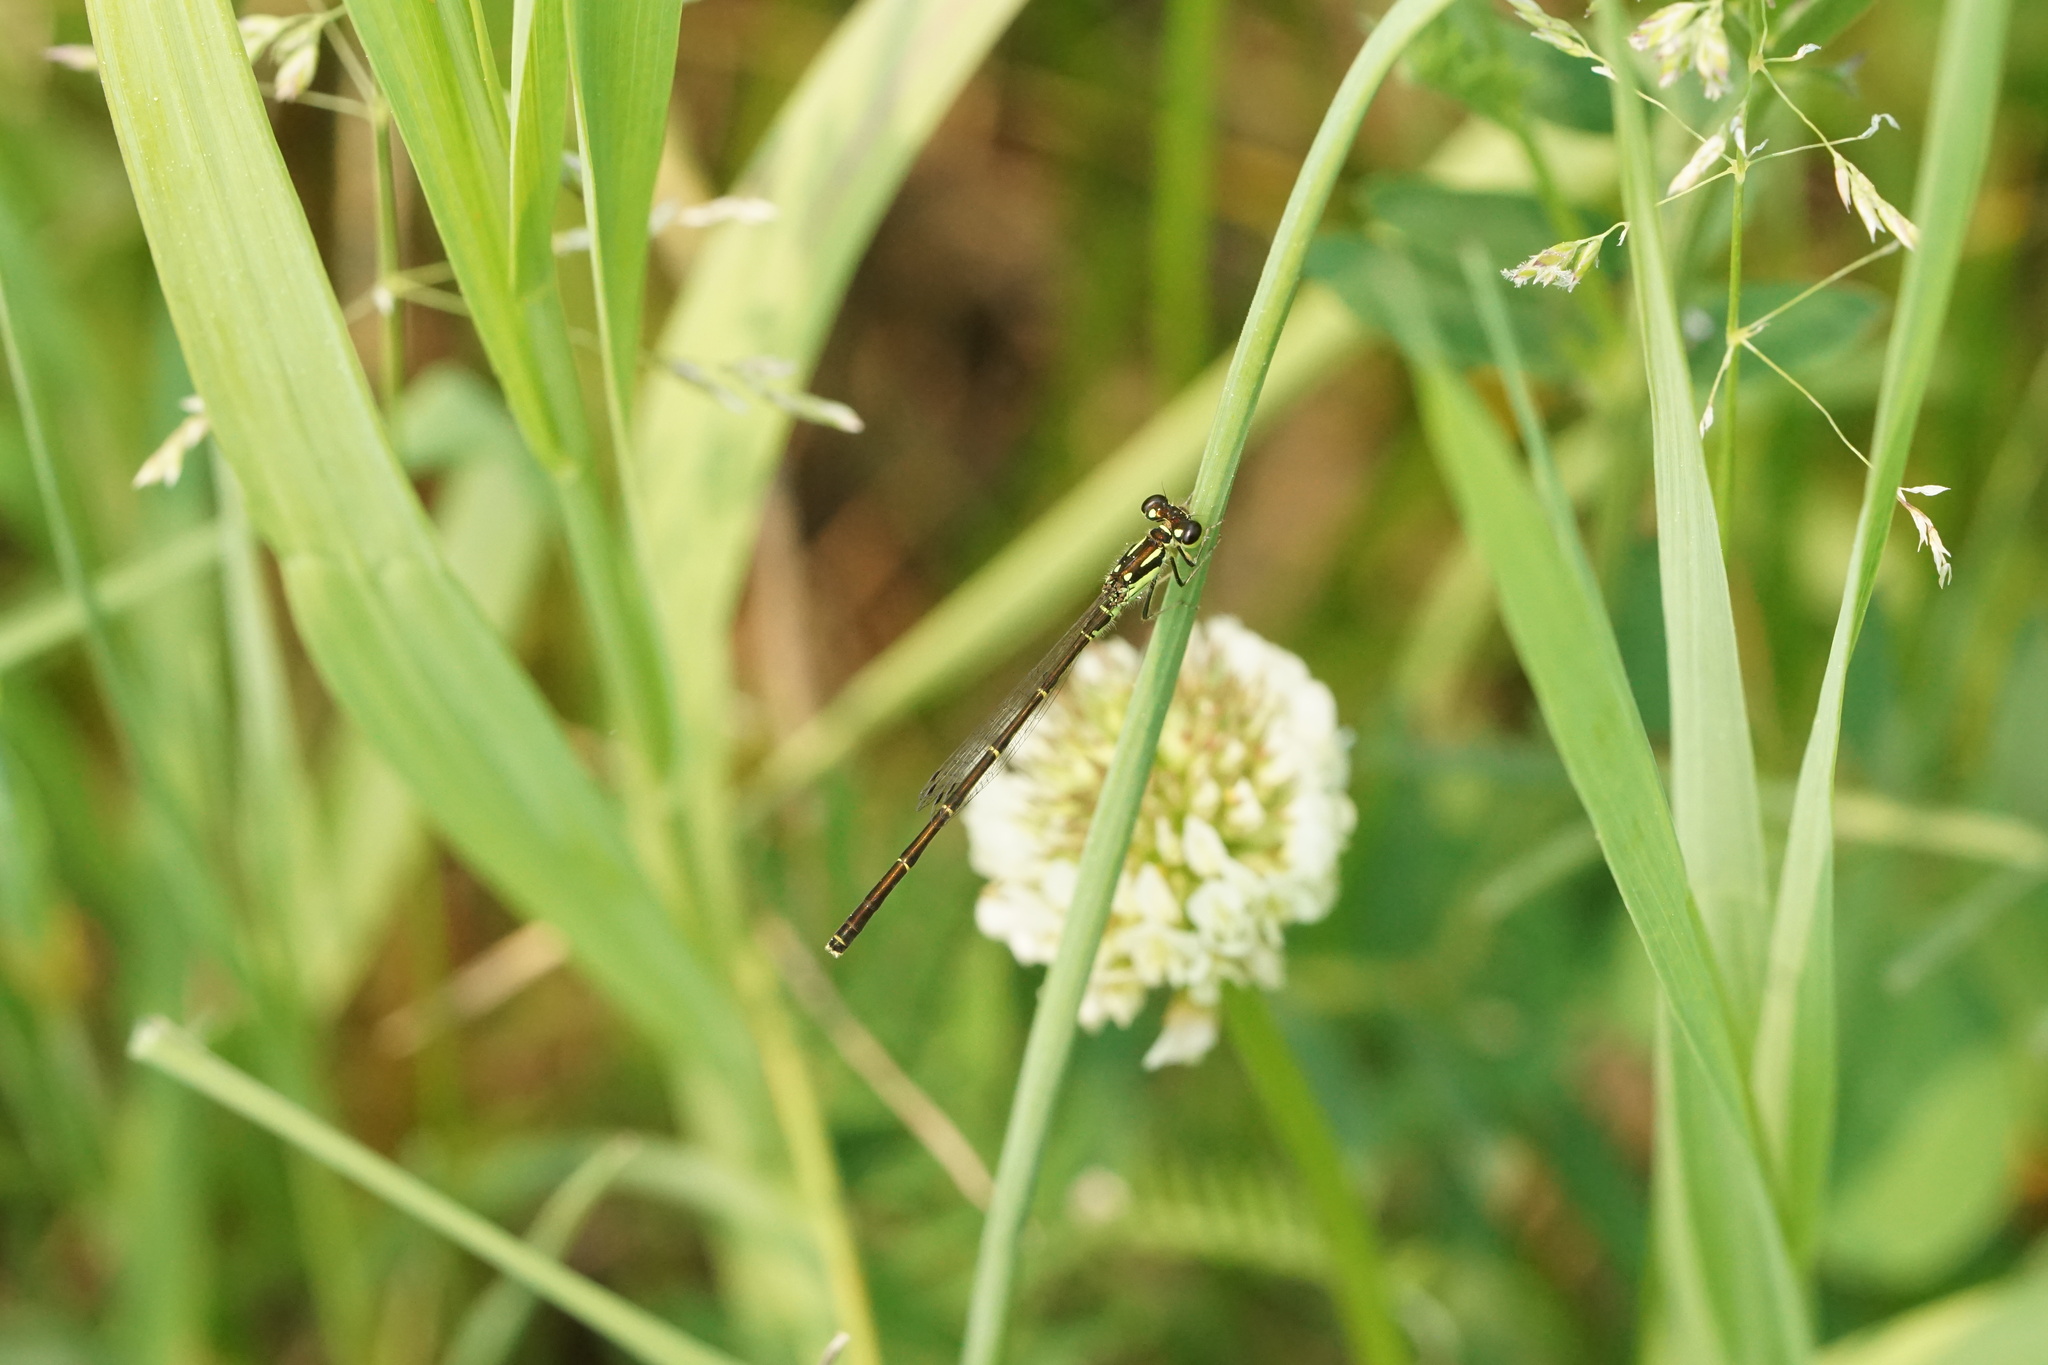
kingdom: Animalia
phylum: Arthropoda
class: Insecta
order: Odonata
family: Coenagrionidae
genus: Ischnura
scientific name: Ischnura posita
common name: Fragile forktail
